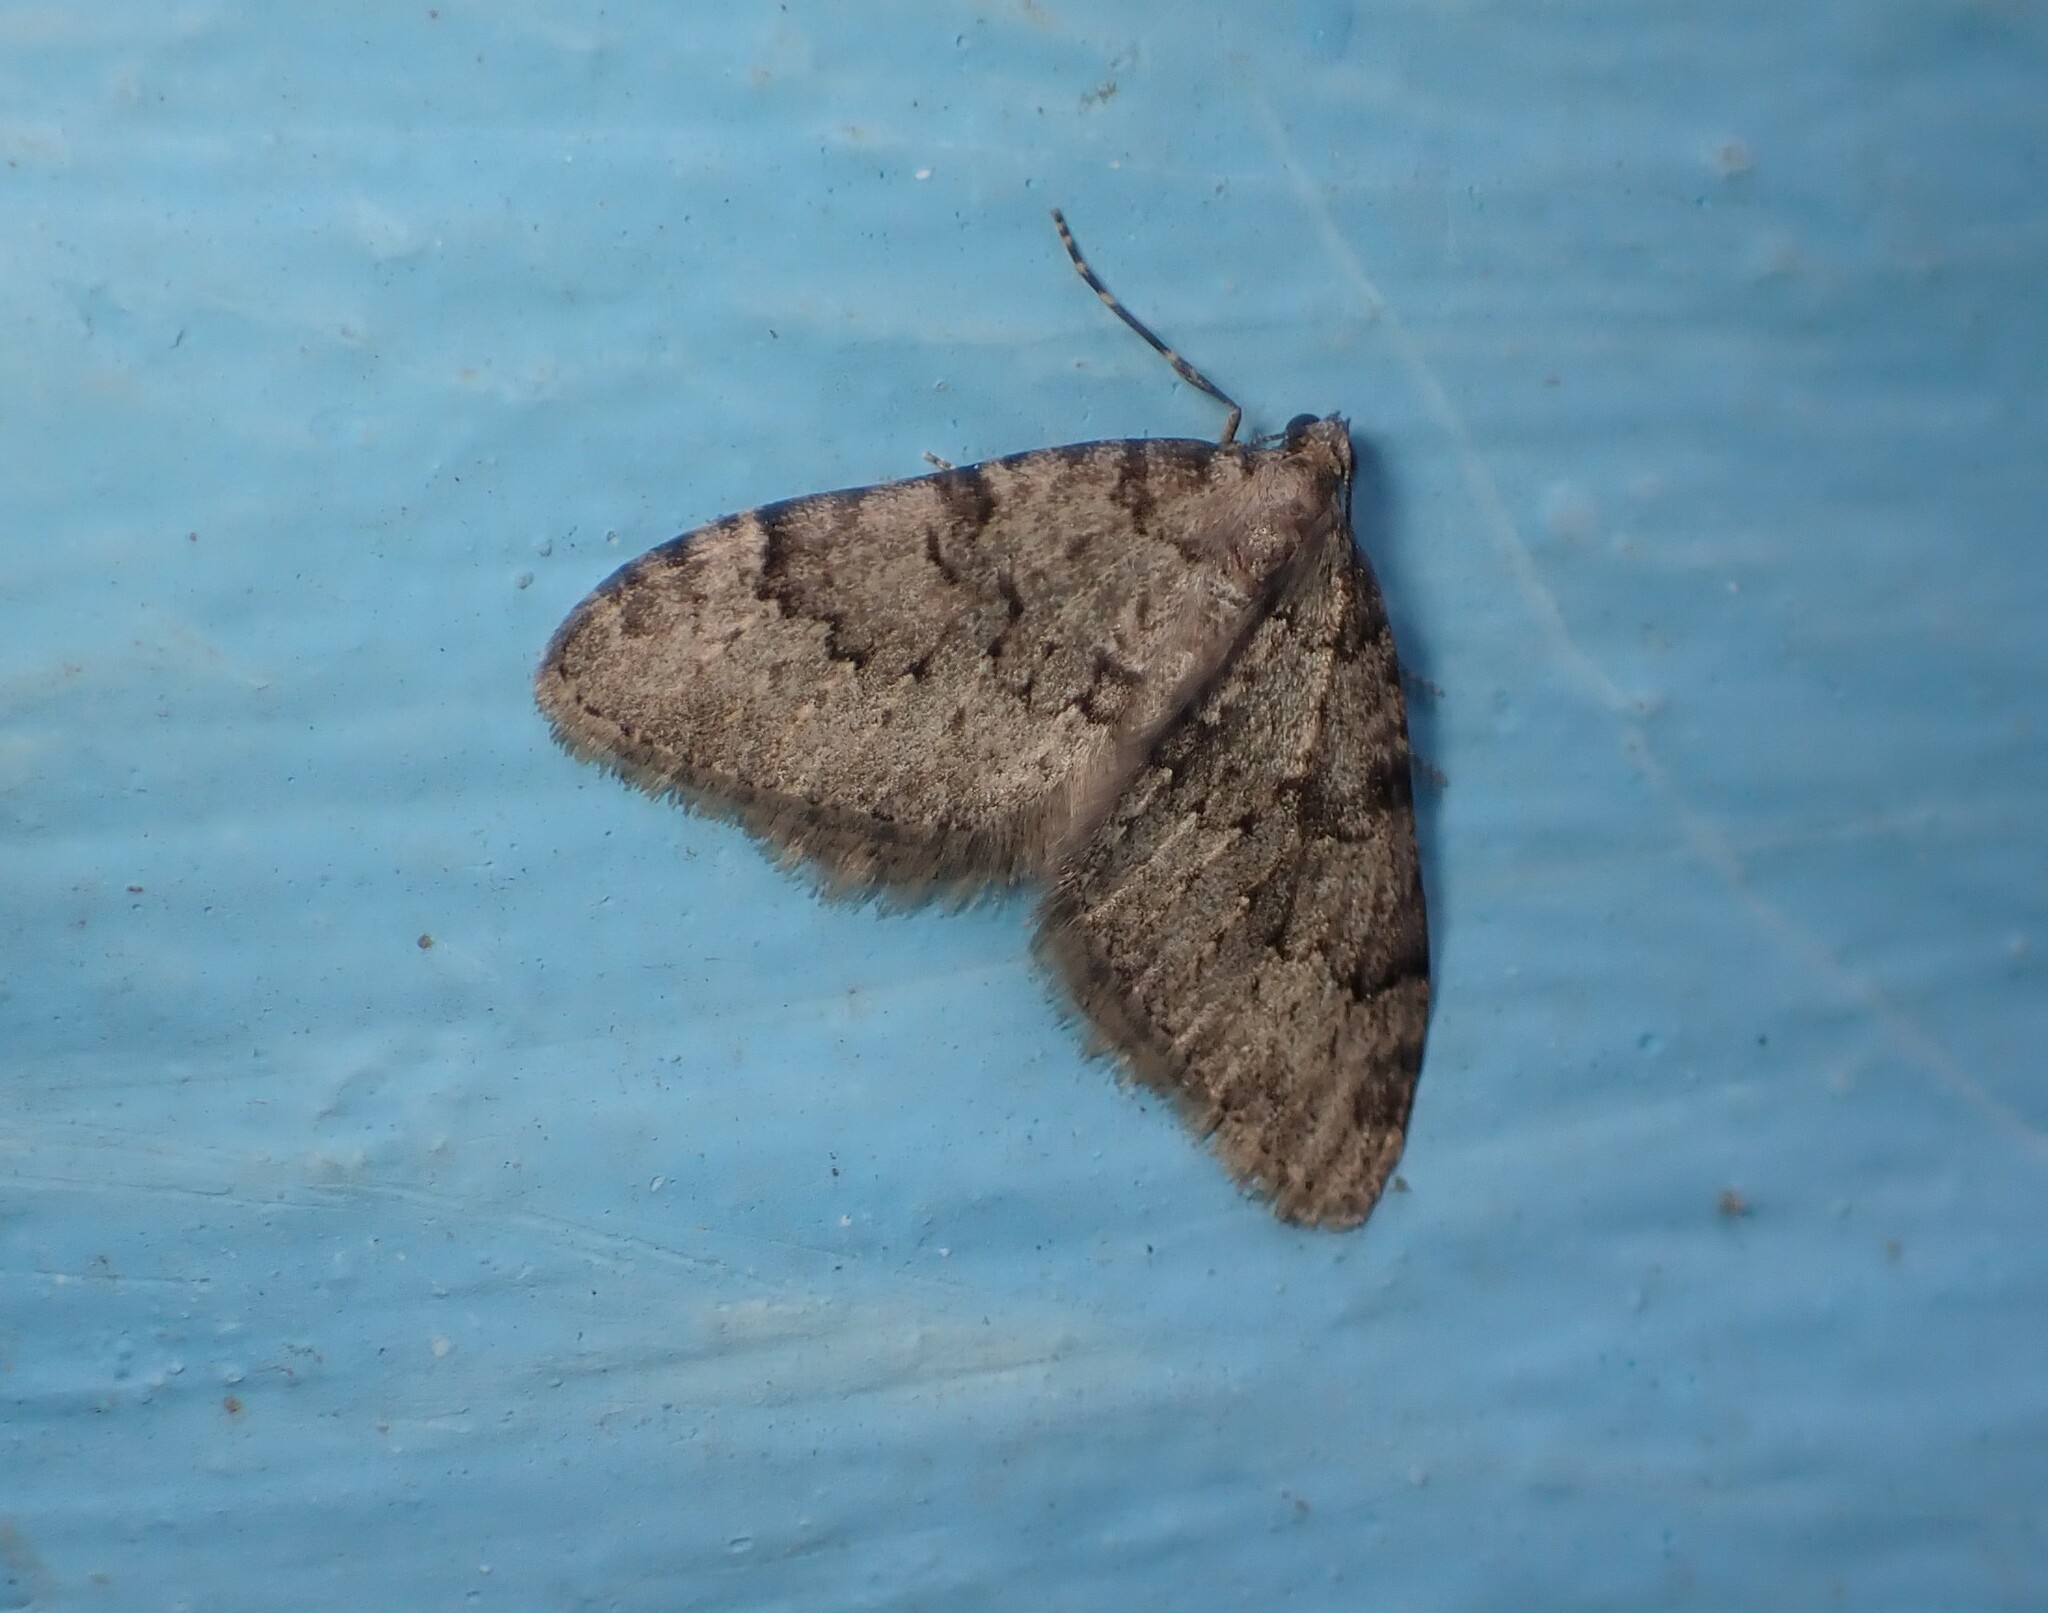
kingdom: Animalia
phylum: Arthropoda
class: Insecta
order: Lepidoptera
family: Geometridae
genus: Nebula
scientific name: Nebula ibericata
